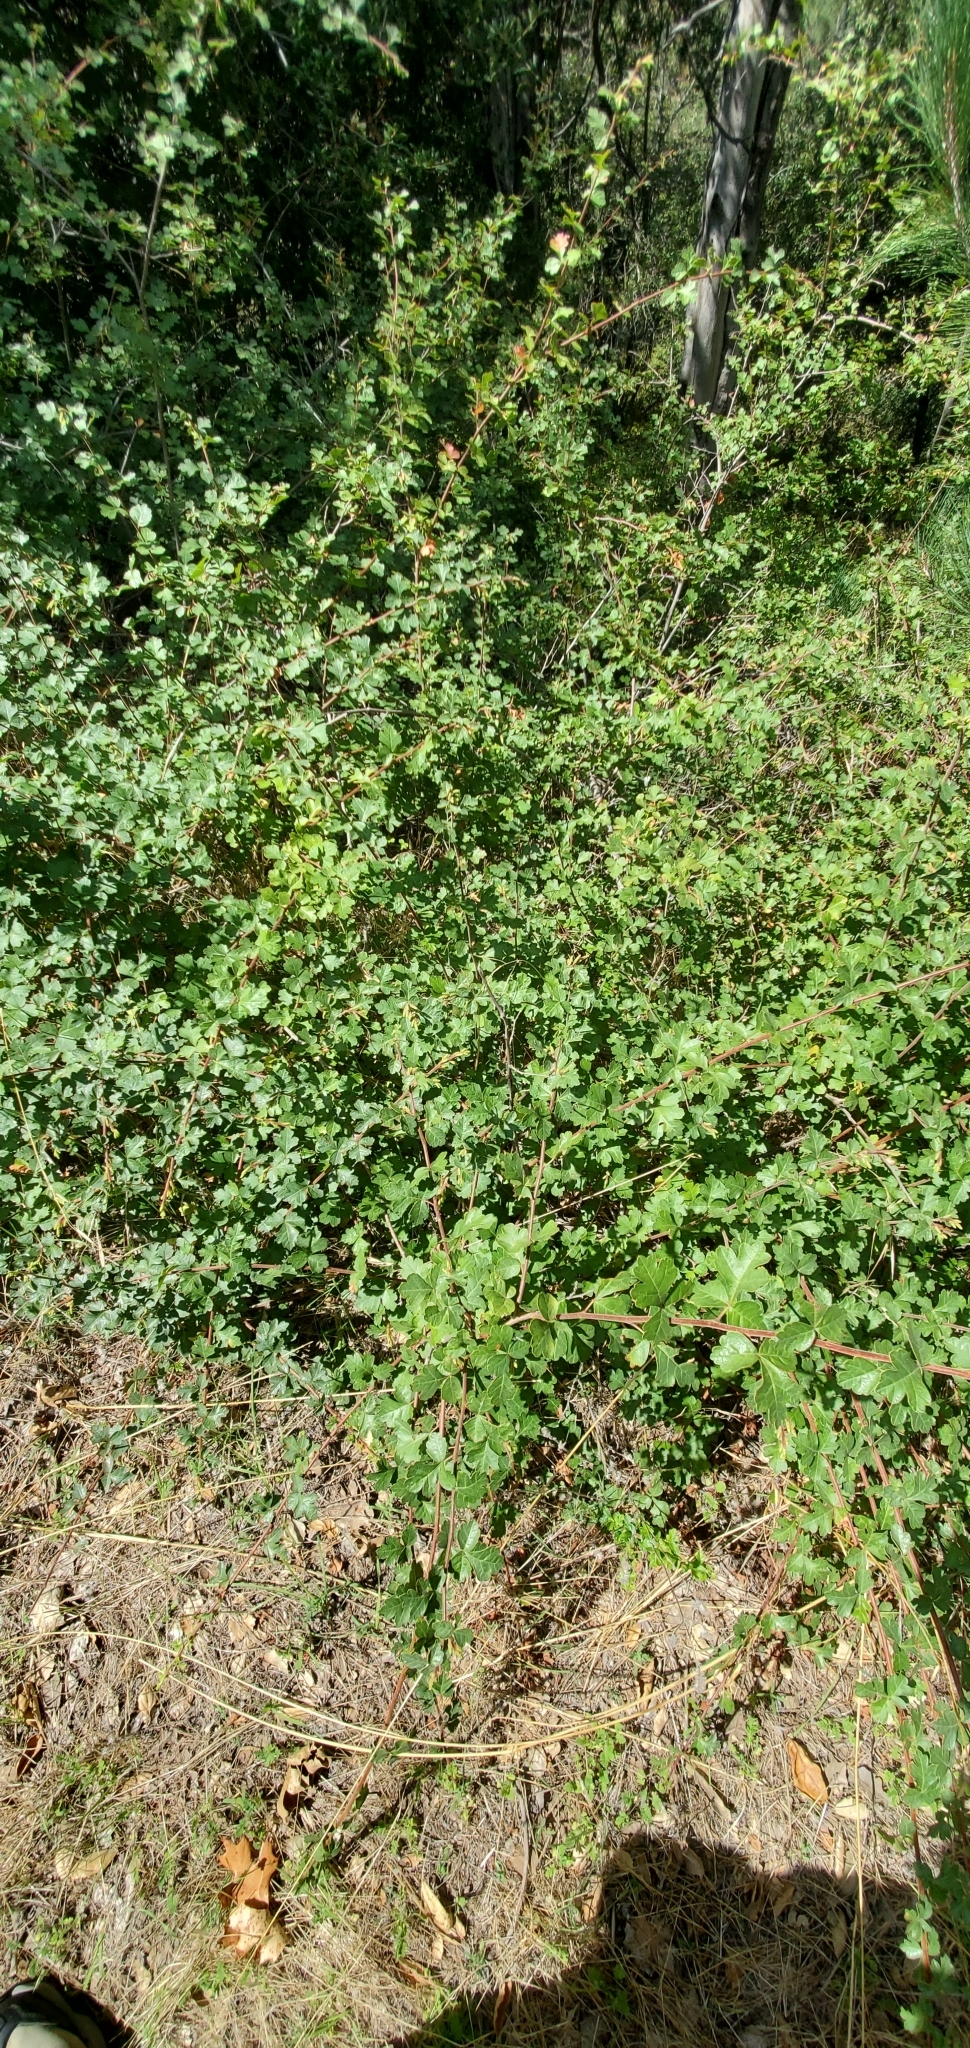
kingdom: Plantae
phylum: Tracheophyta
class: Magnoliopsida
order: Sapindales
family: Anacardiaceae
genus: Rhus
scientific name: Rhus trilobata
